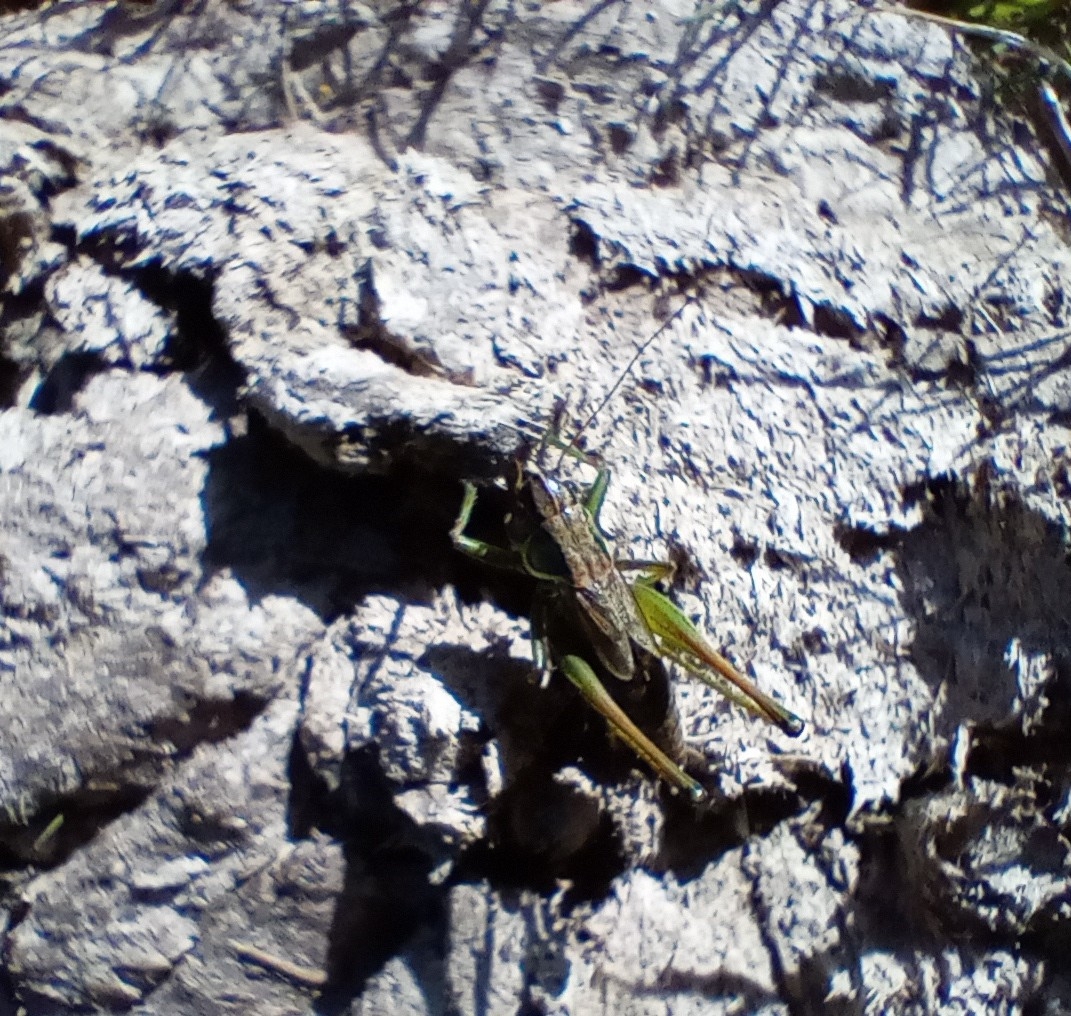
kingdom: Animalia
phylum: Arthropoda
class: Insecta
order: Orthoptera
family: Tettigoniidae
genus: Roeseliana
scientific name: Roeseliana roeselii
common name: Roesel's bush cricket
